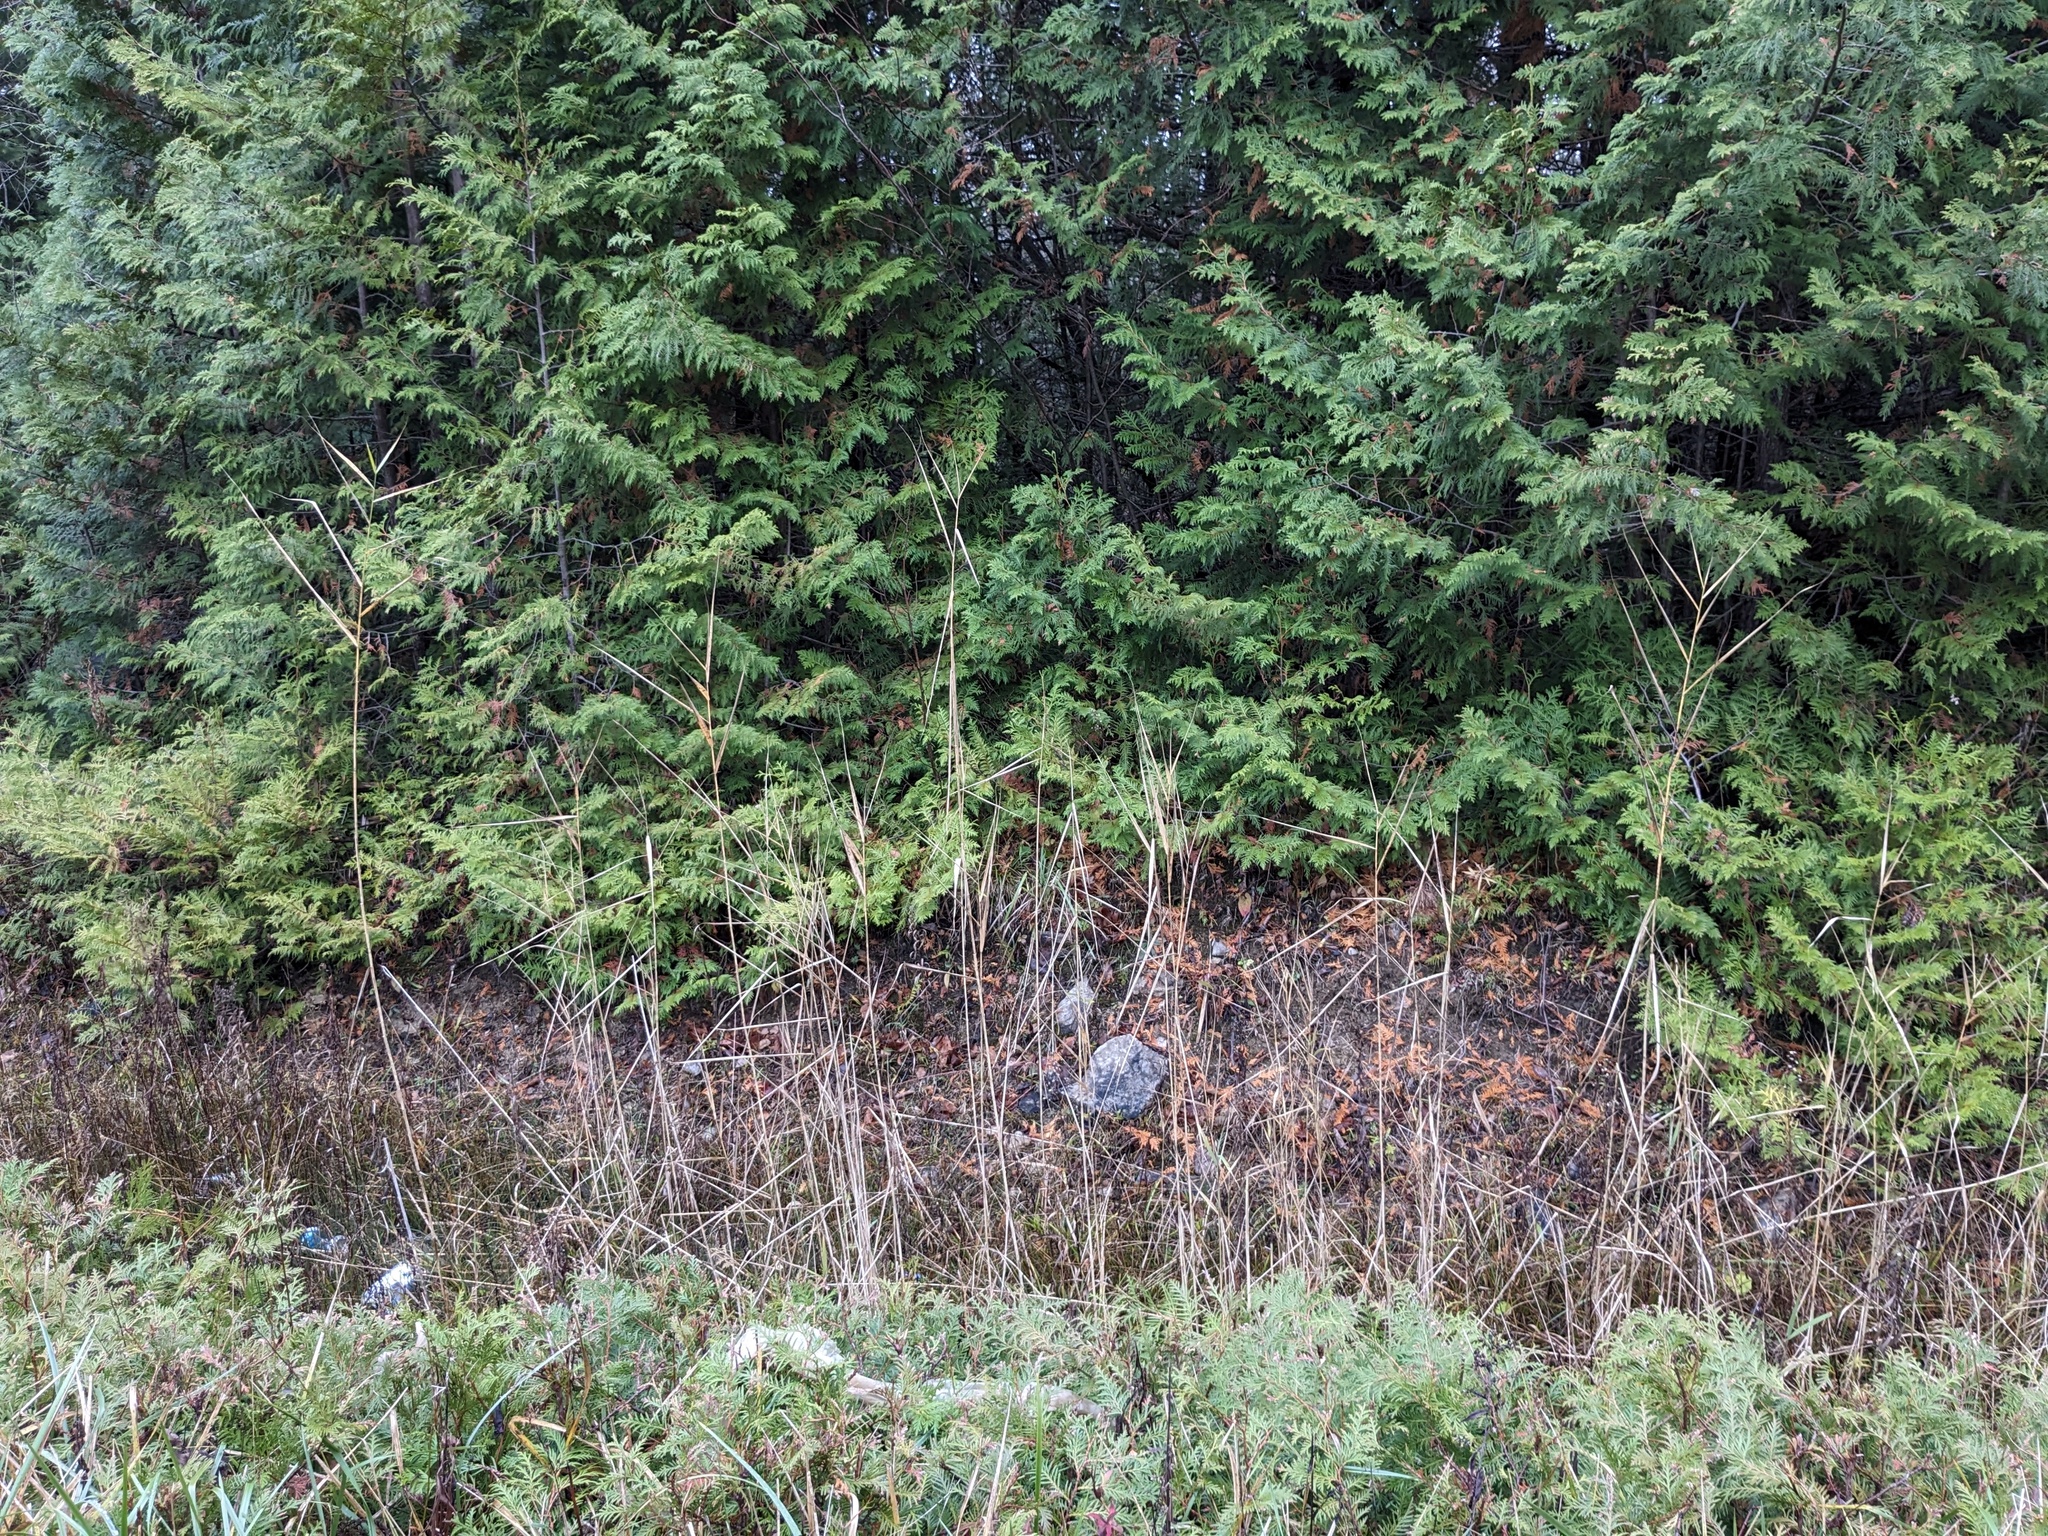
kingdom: Plantae
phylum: Tracheophyta
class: Liliopsida
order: Poales
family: Poaceae
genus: Phragmites
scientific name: Phragmites australis
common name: Common reed
